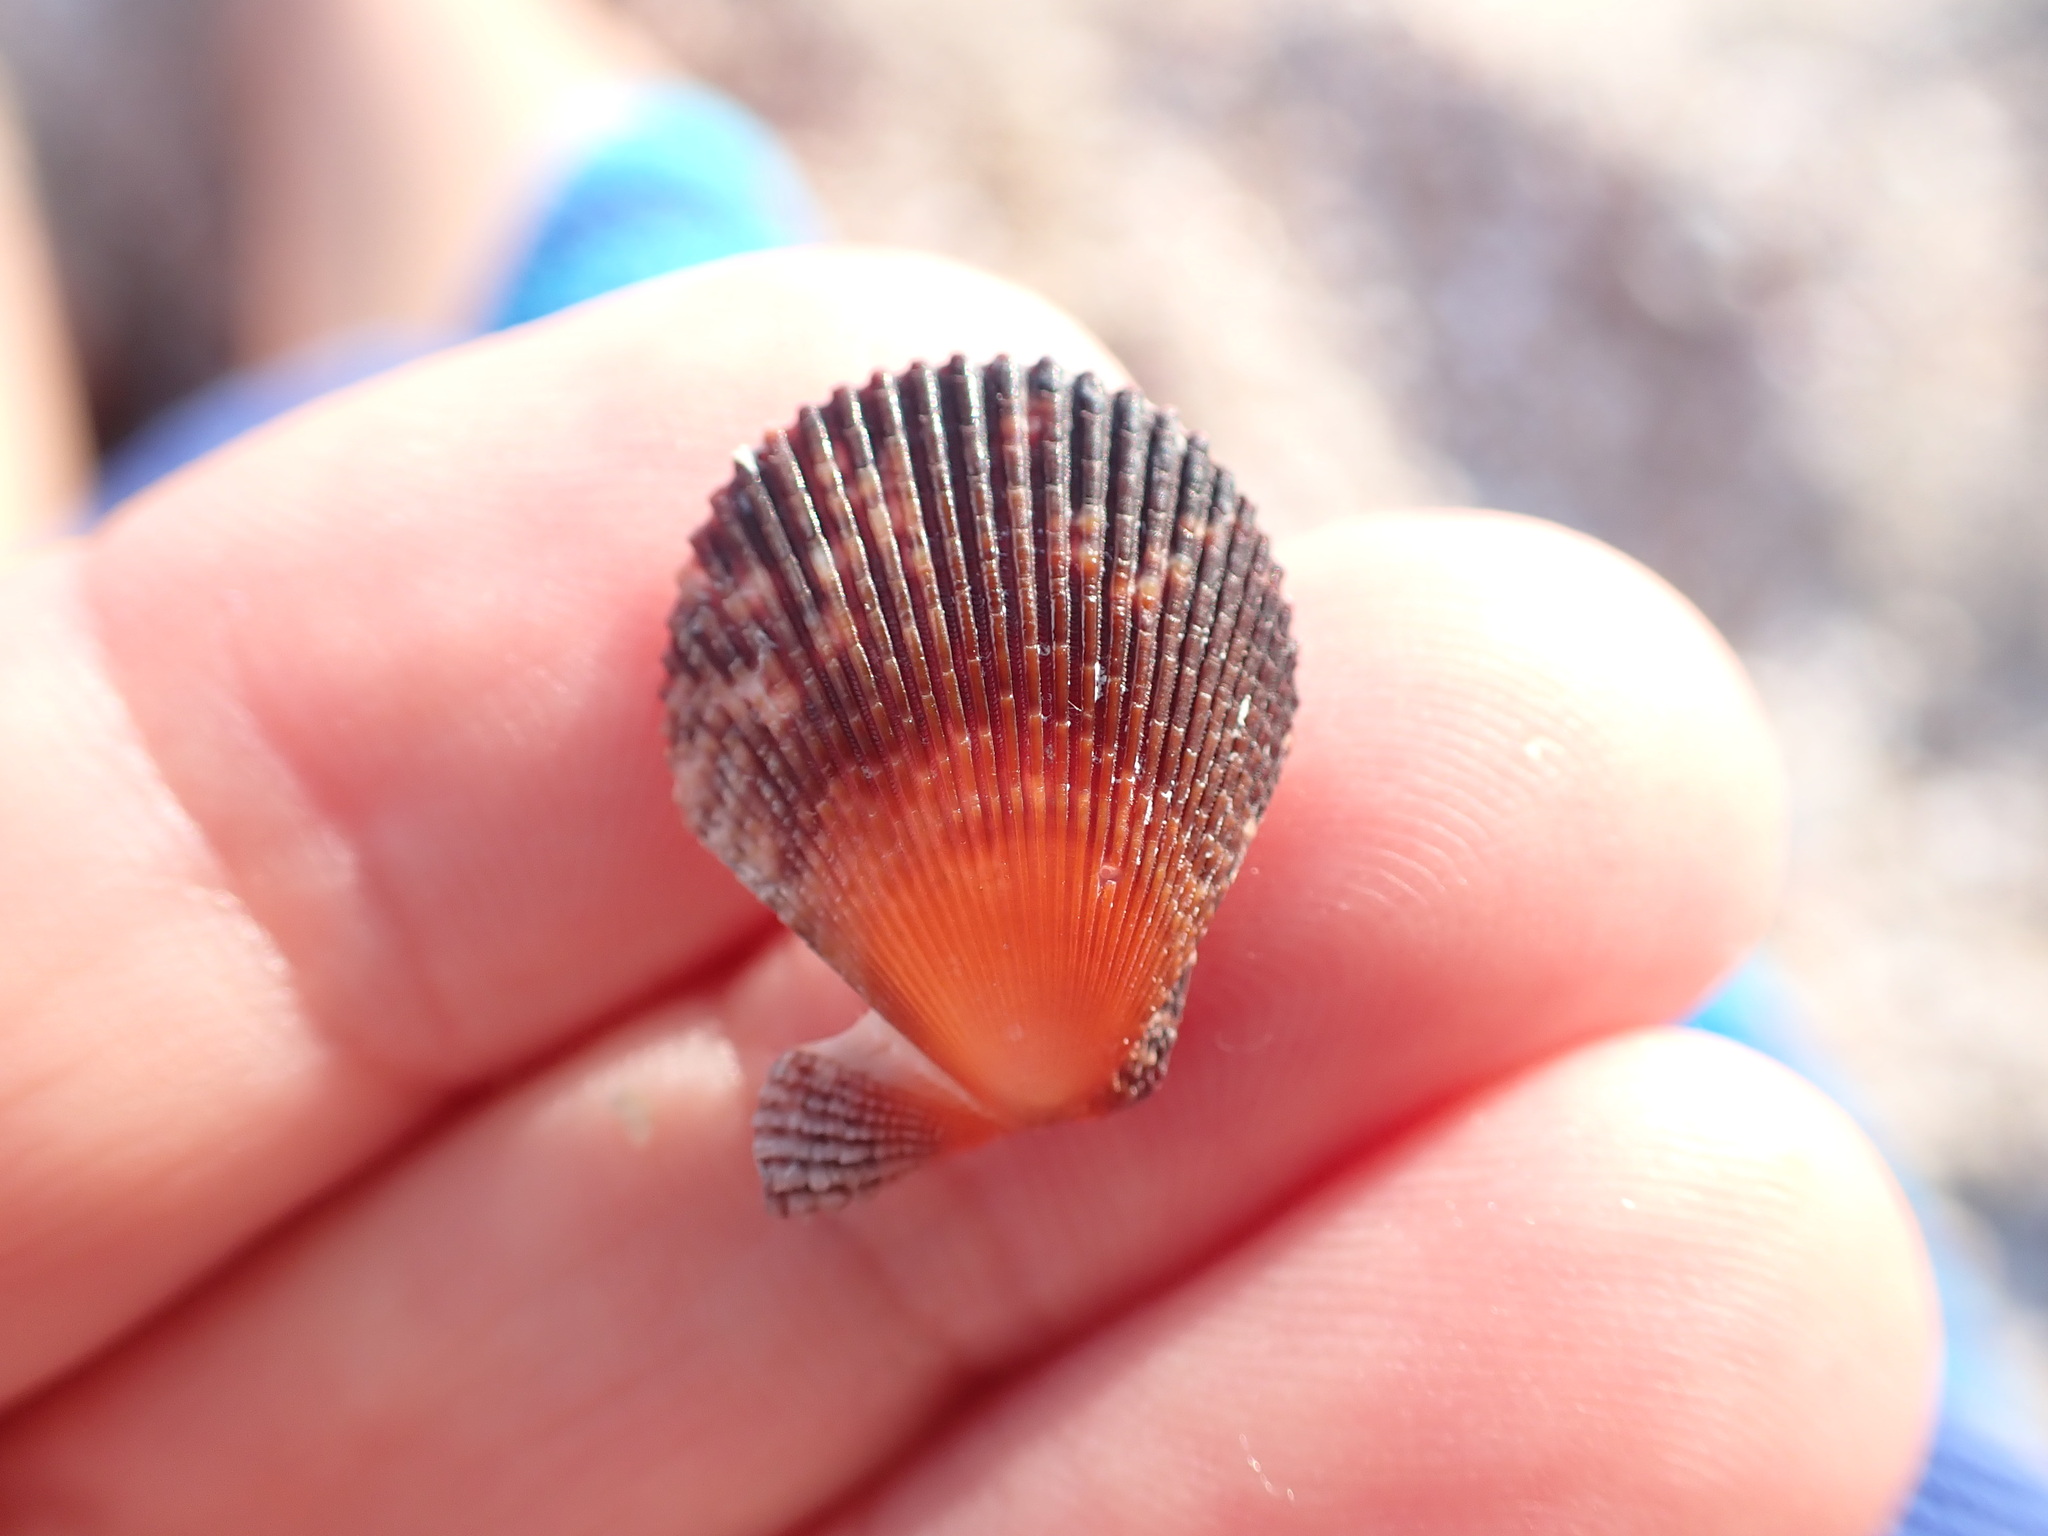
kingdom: Animalia
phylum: Mollusca
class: Bivalvia
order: Pectinida
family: Pectinidae
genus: Mimachlamys
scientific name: Mimachlamys varia
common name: Variegated scallop
